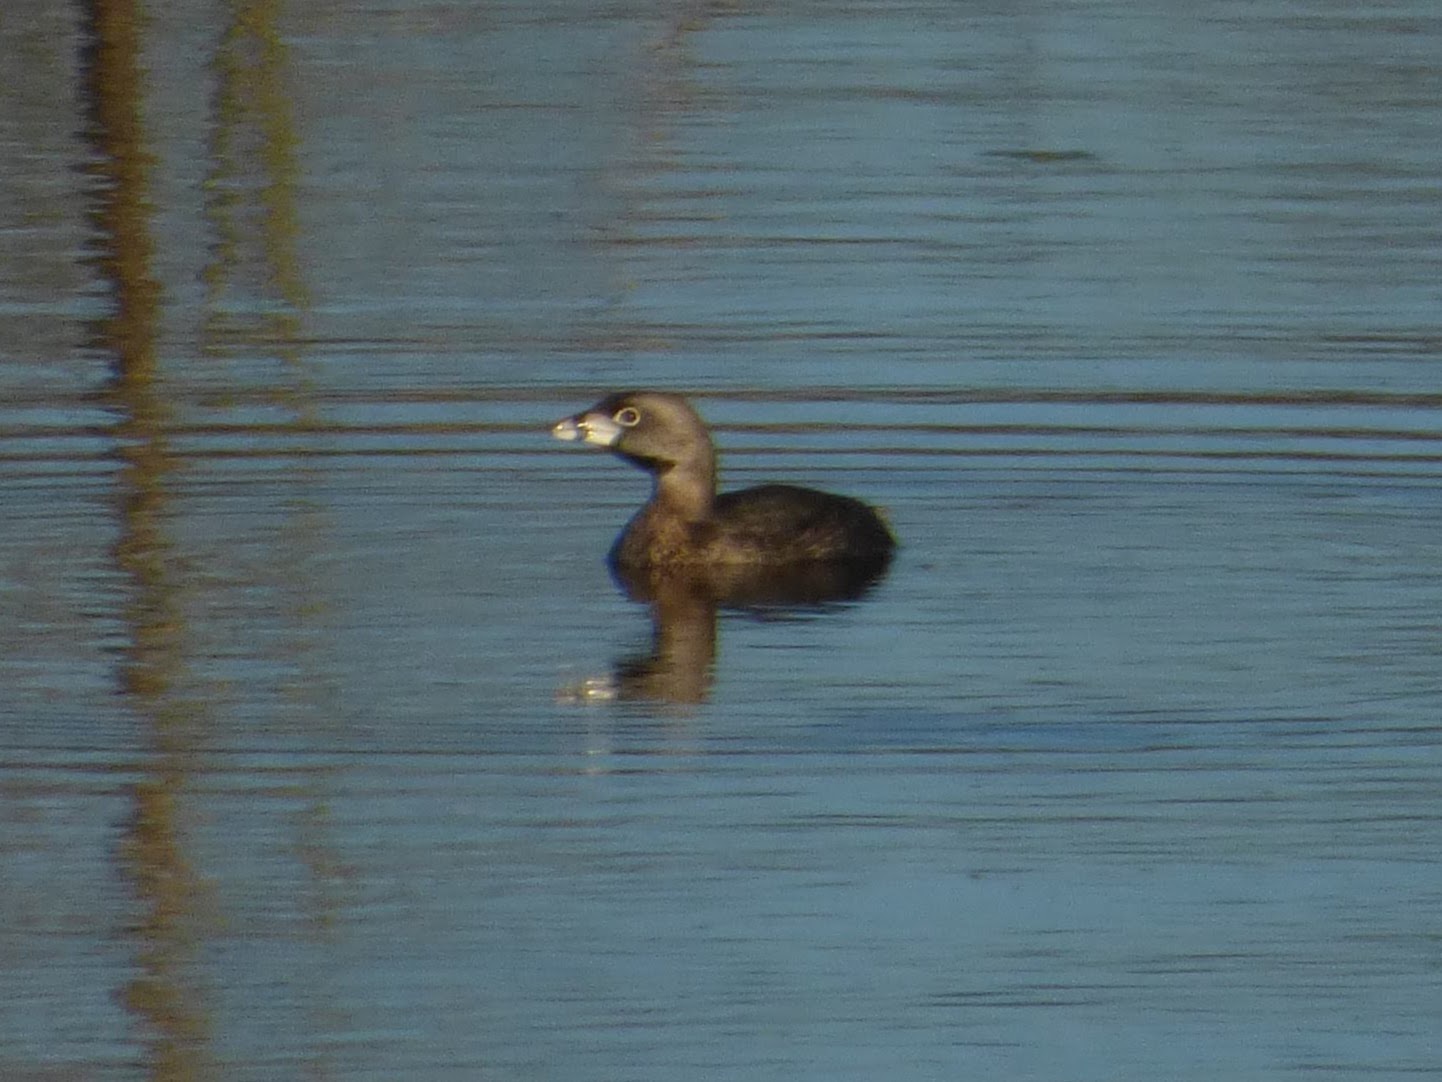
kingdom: Animalia
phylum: Chordata
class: Aves
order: Podicipediformes
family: Podicipedidae
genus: Podilymbus
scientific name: Podilymbus podiceps
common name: Pied-billed grebe
